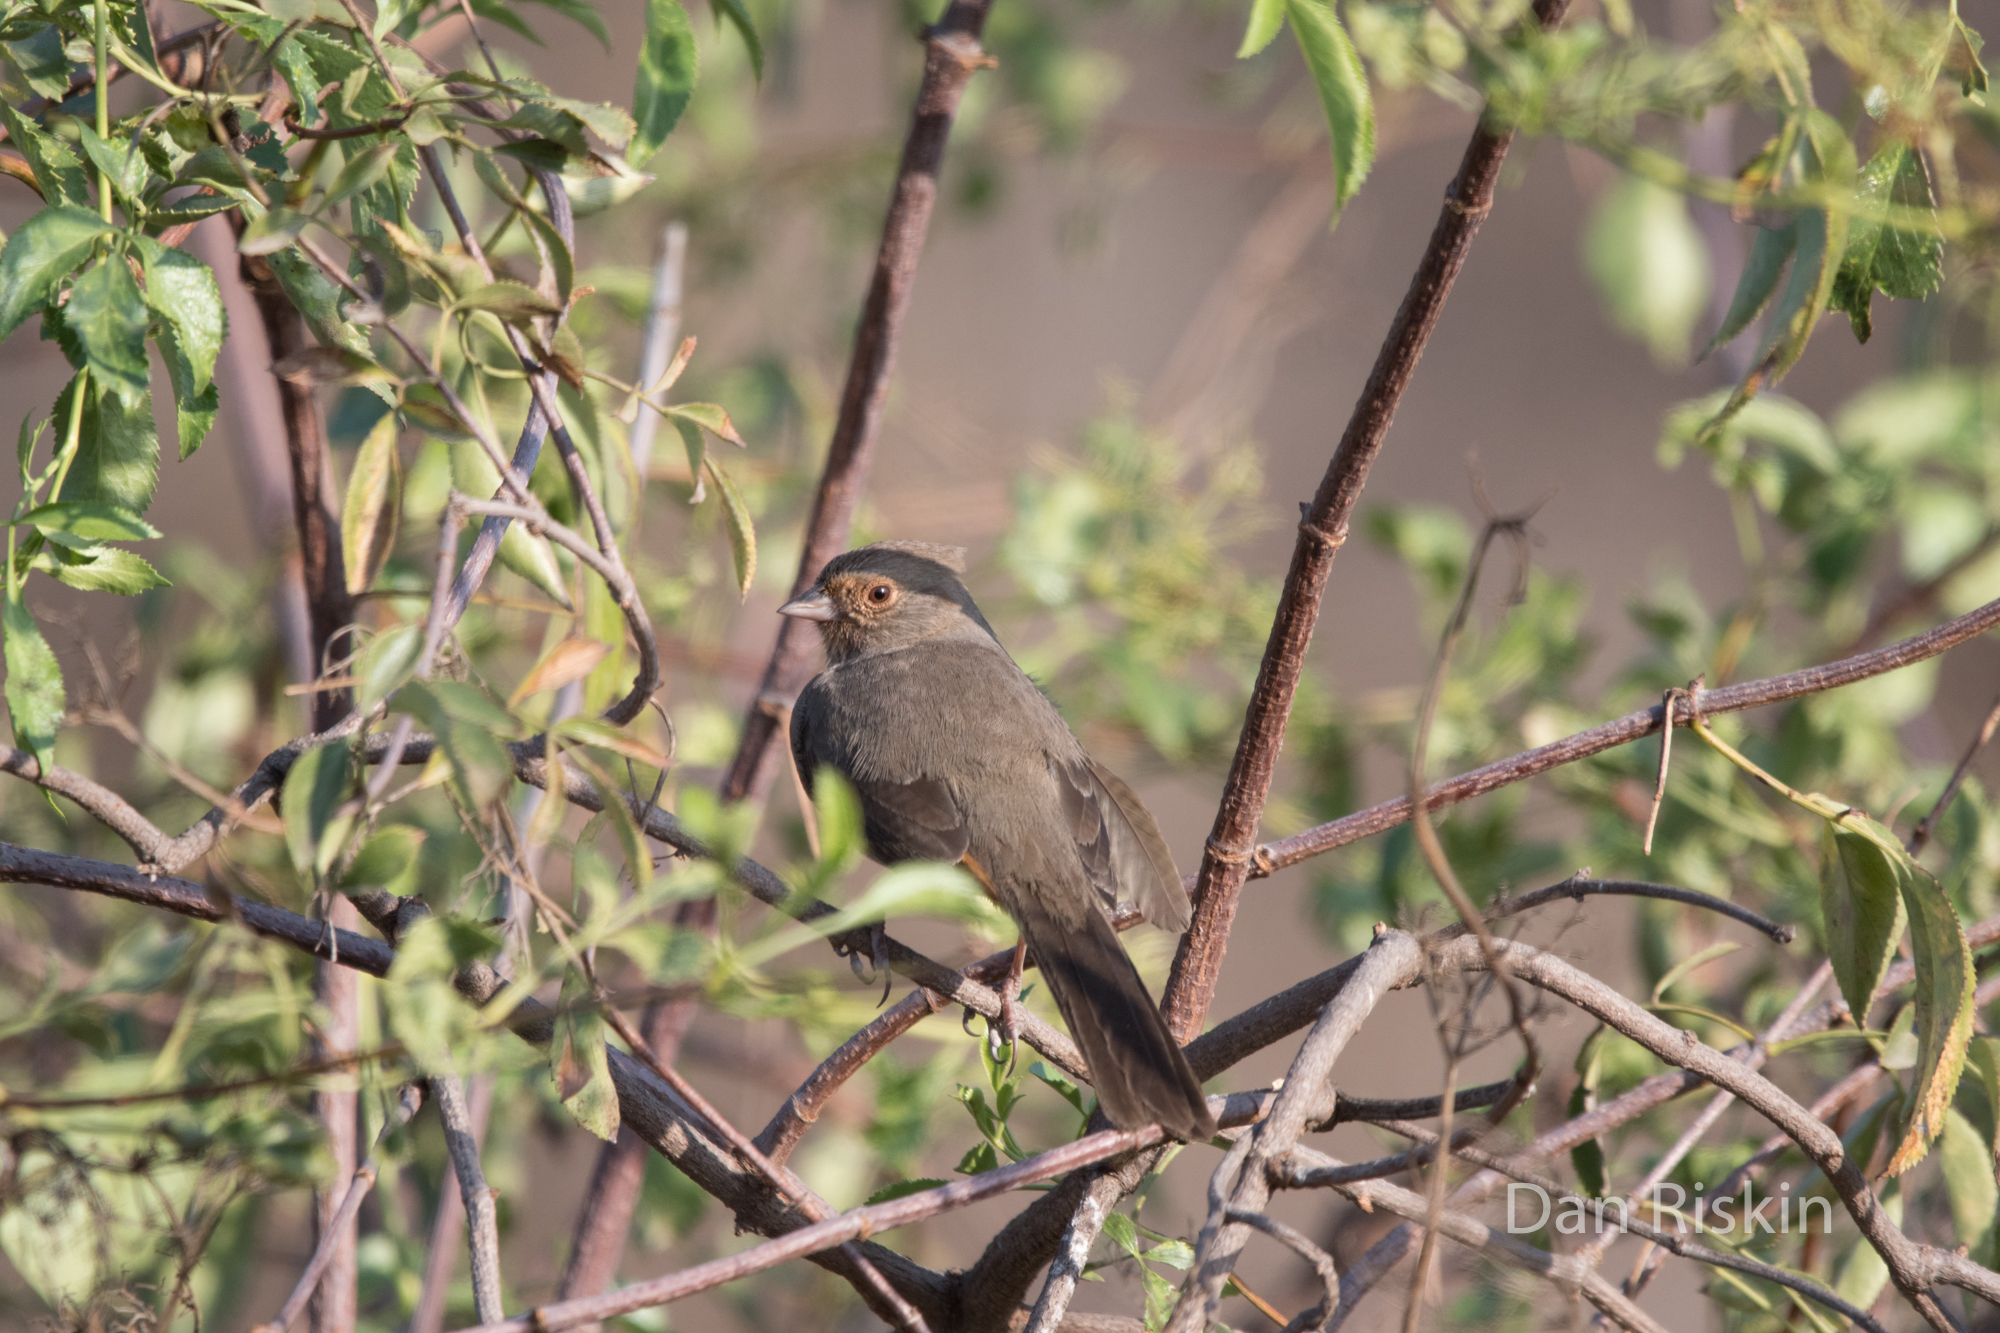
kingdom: Animalia
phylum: Chordata
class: Aves
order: Passeriformes
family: Passerellidae
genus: Melozone
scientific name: Melozone crissalis
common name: California towhee
